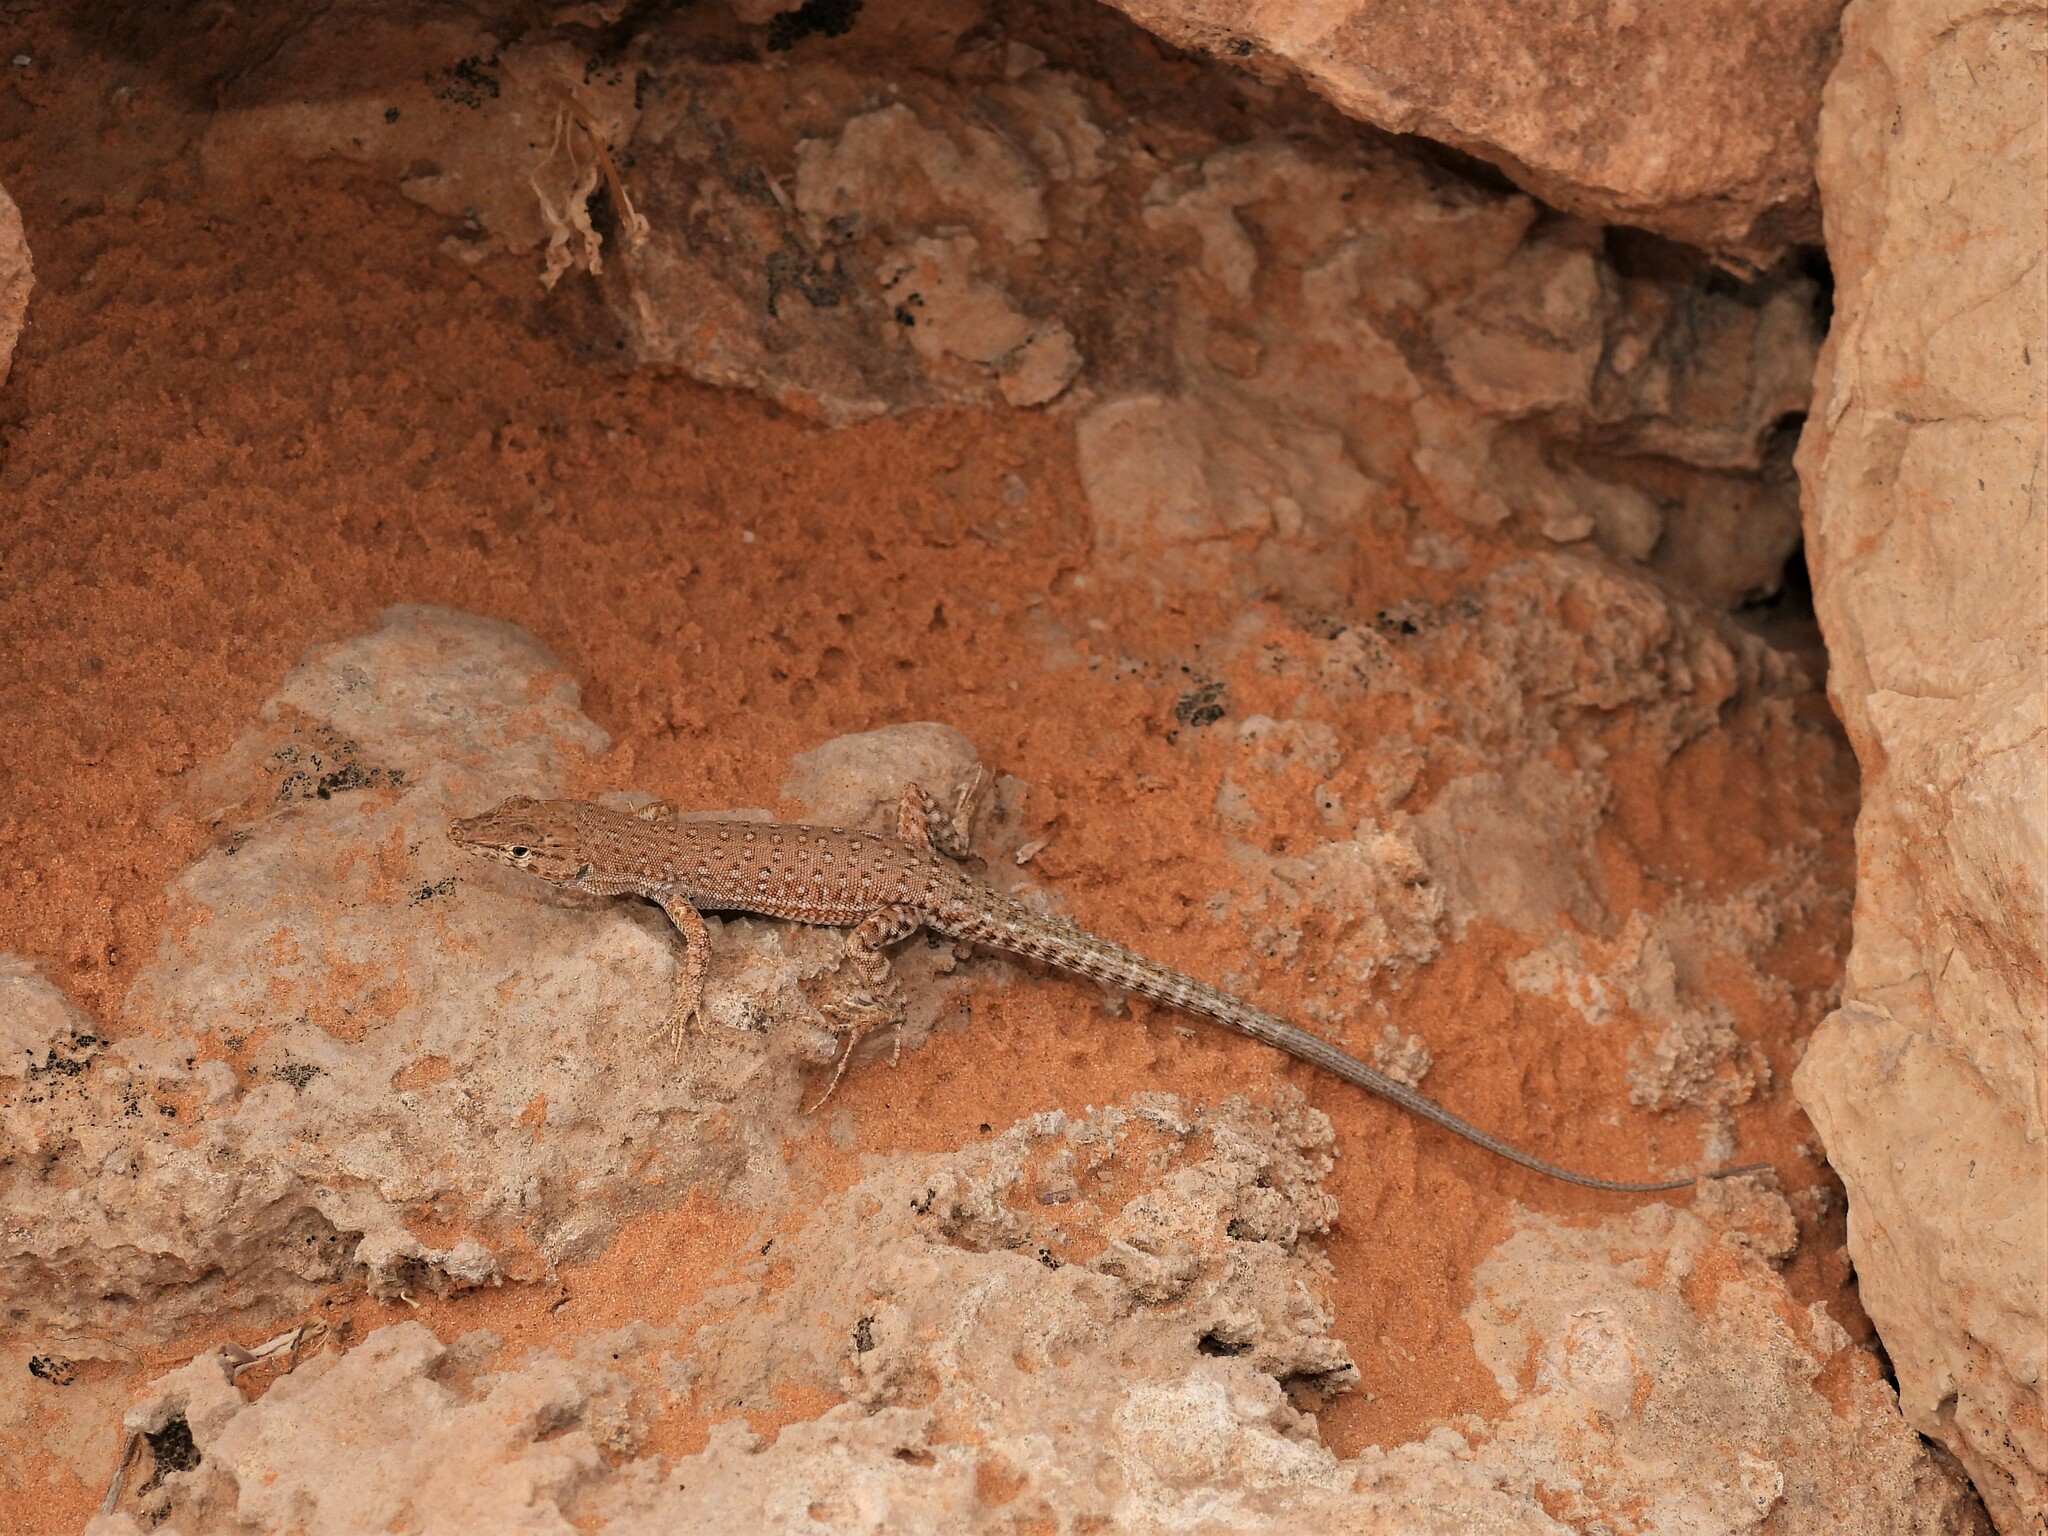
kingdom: Animalia
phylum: Chordata
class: Squamata
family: Lacertidae
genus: Mesalina
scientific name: Mesalina guttulata
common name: Desert lacerta
